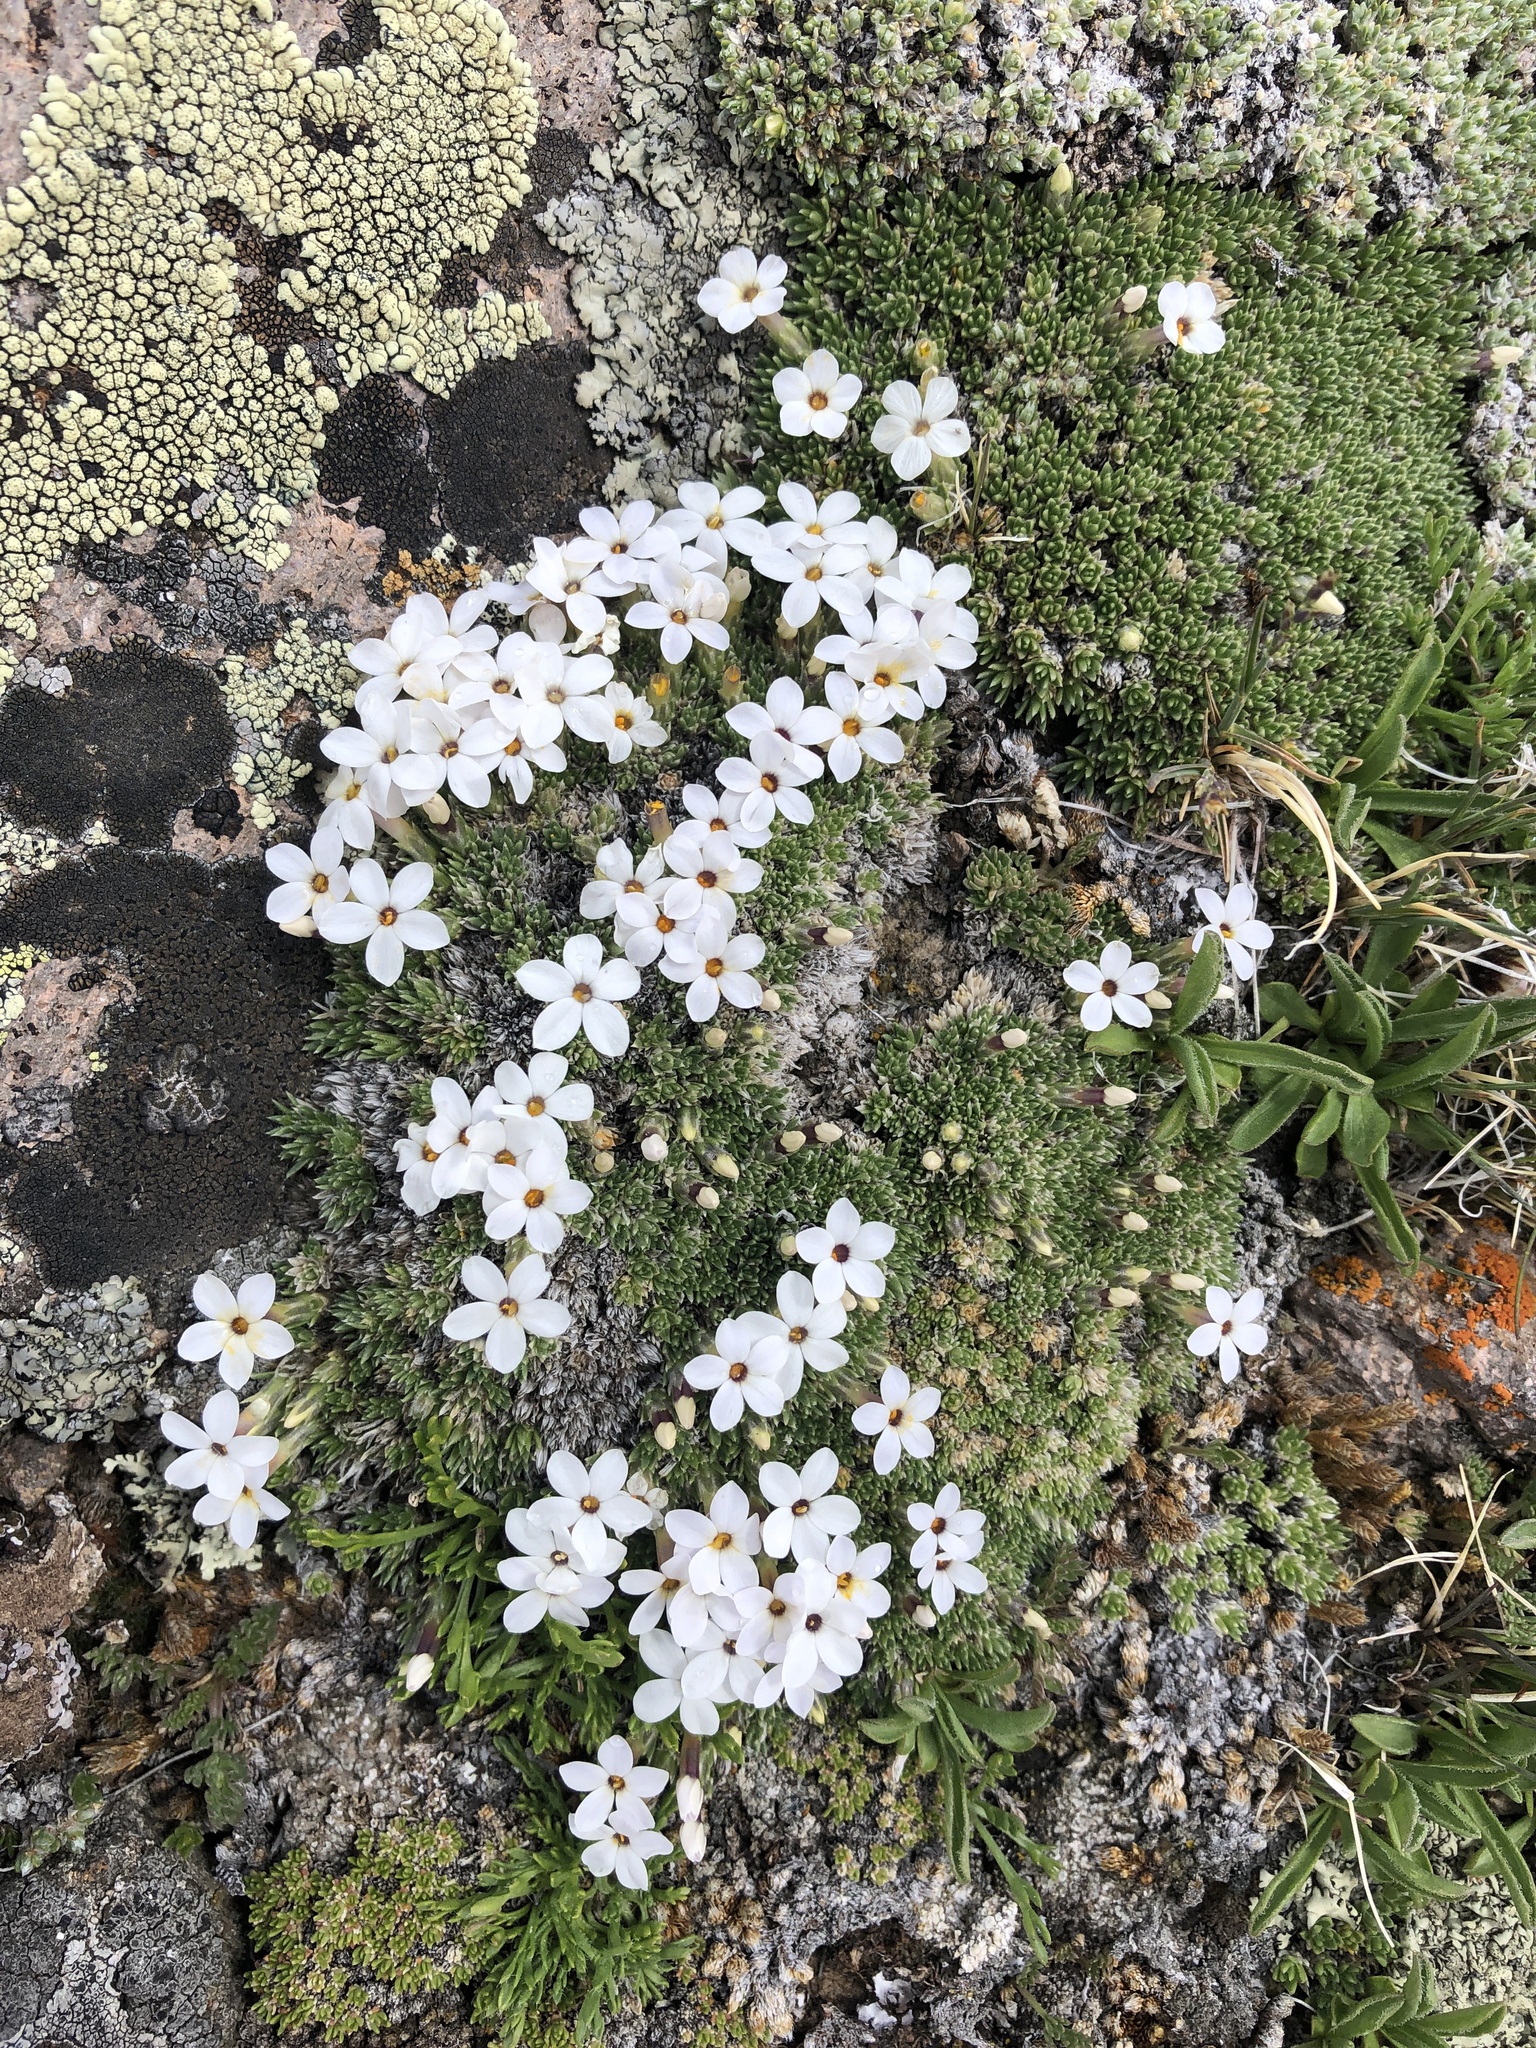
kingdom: Plantae
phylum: Tracheophyta
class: Magnoliopsida
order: Ericales
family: Polemoniaceae
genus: Phlox
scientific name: Phlox condensata
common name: Compact phlox
